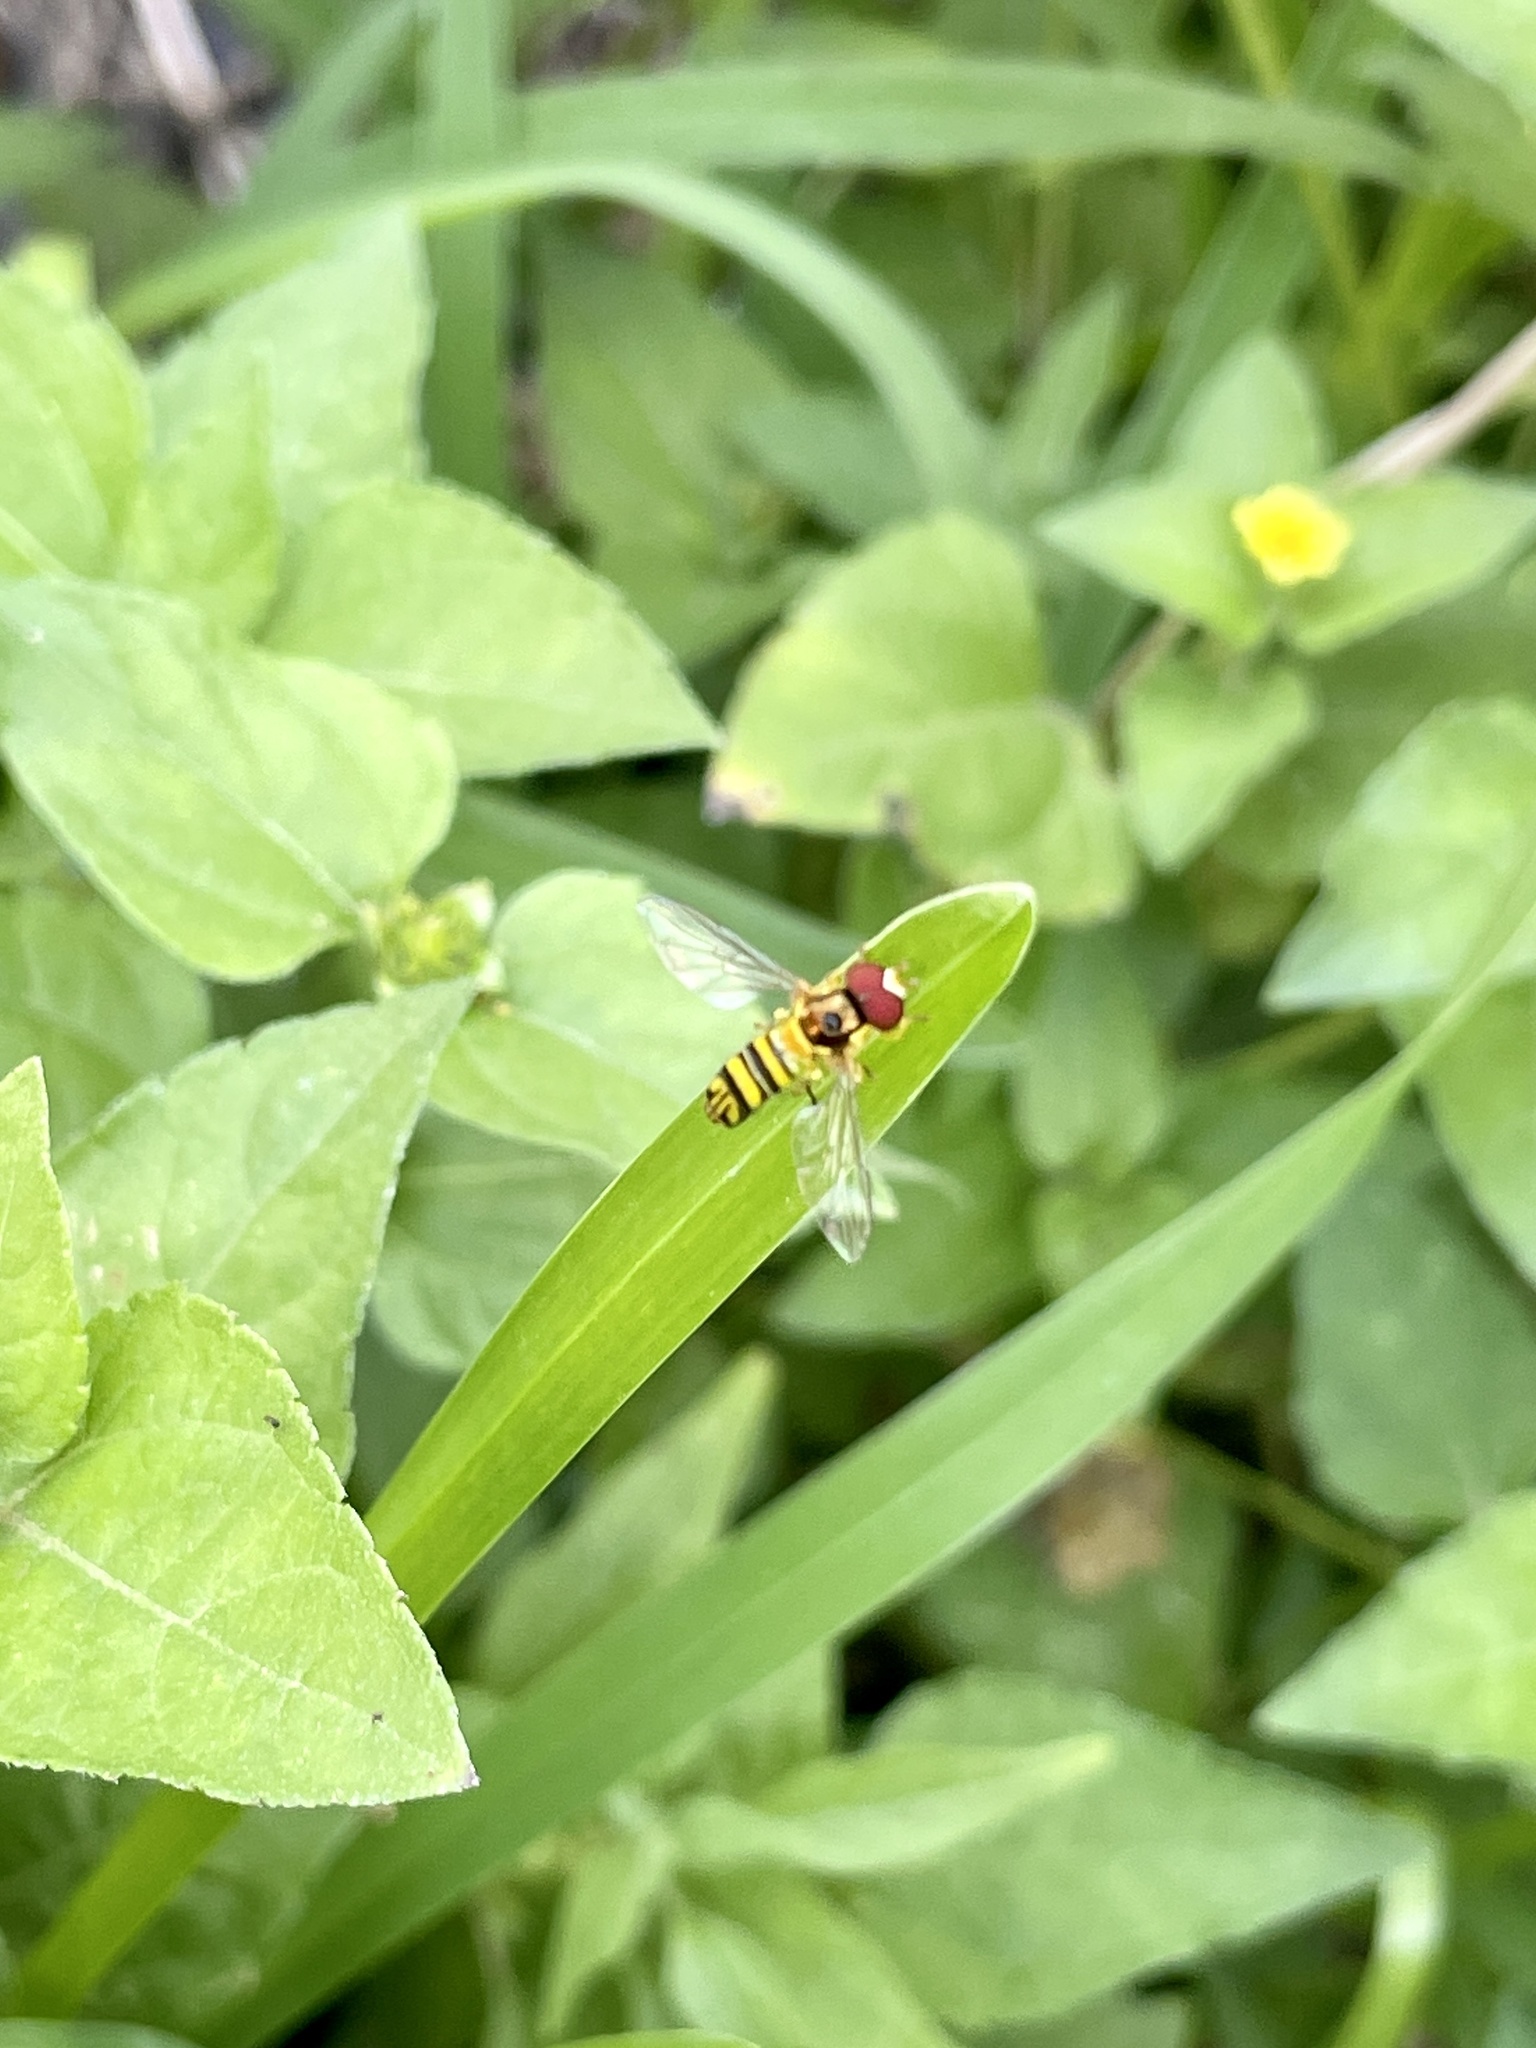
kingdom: Animalia
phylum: Arthropoda
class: Insecta
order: Diptera
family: Syrphidae
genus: Allograpta
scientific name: Allograpta obliqua
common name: Common oblique syrphid
